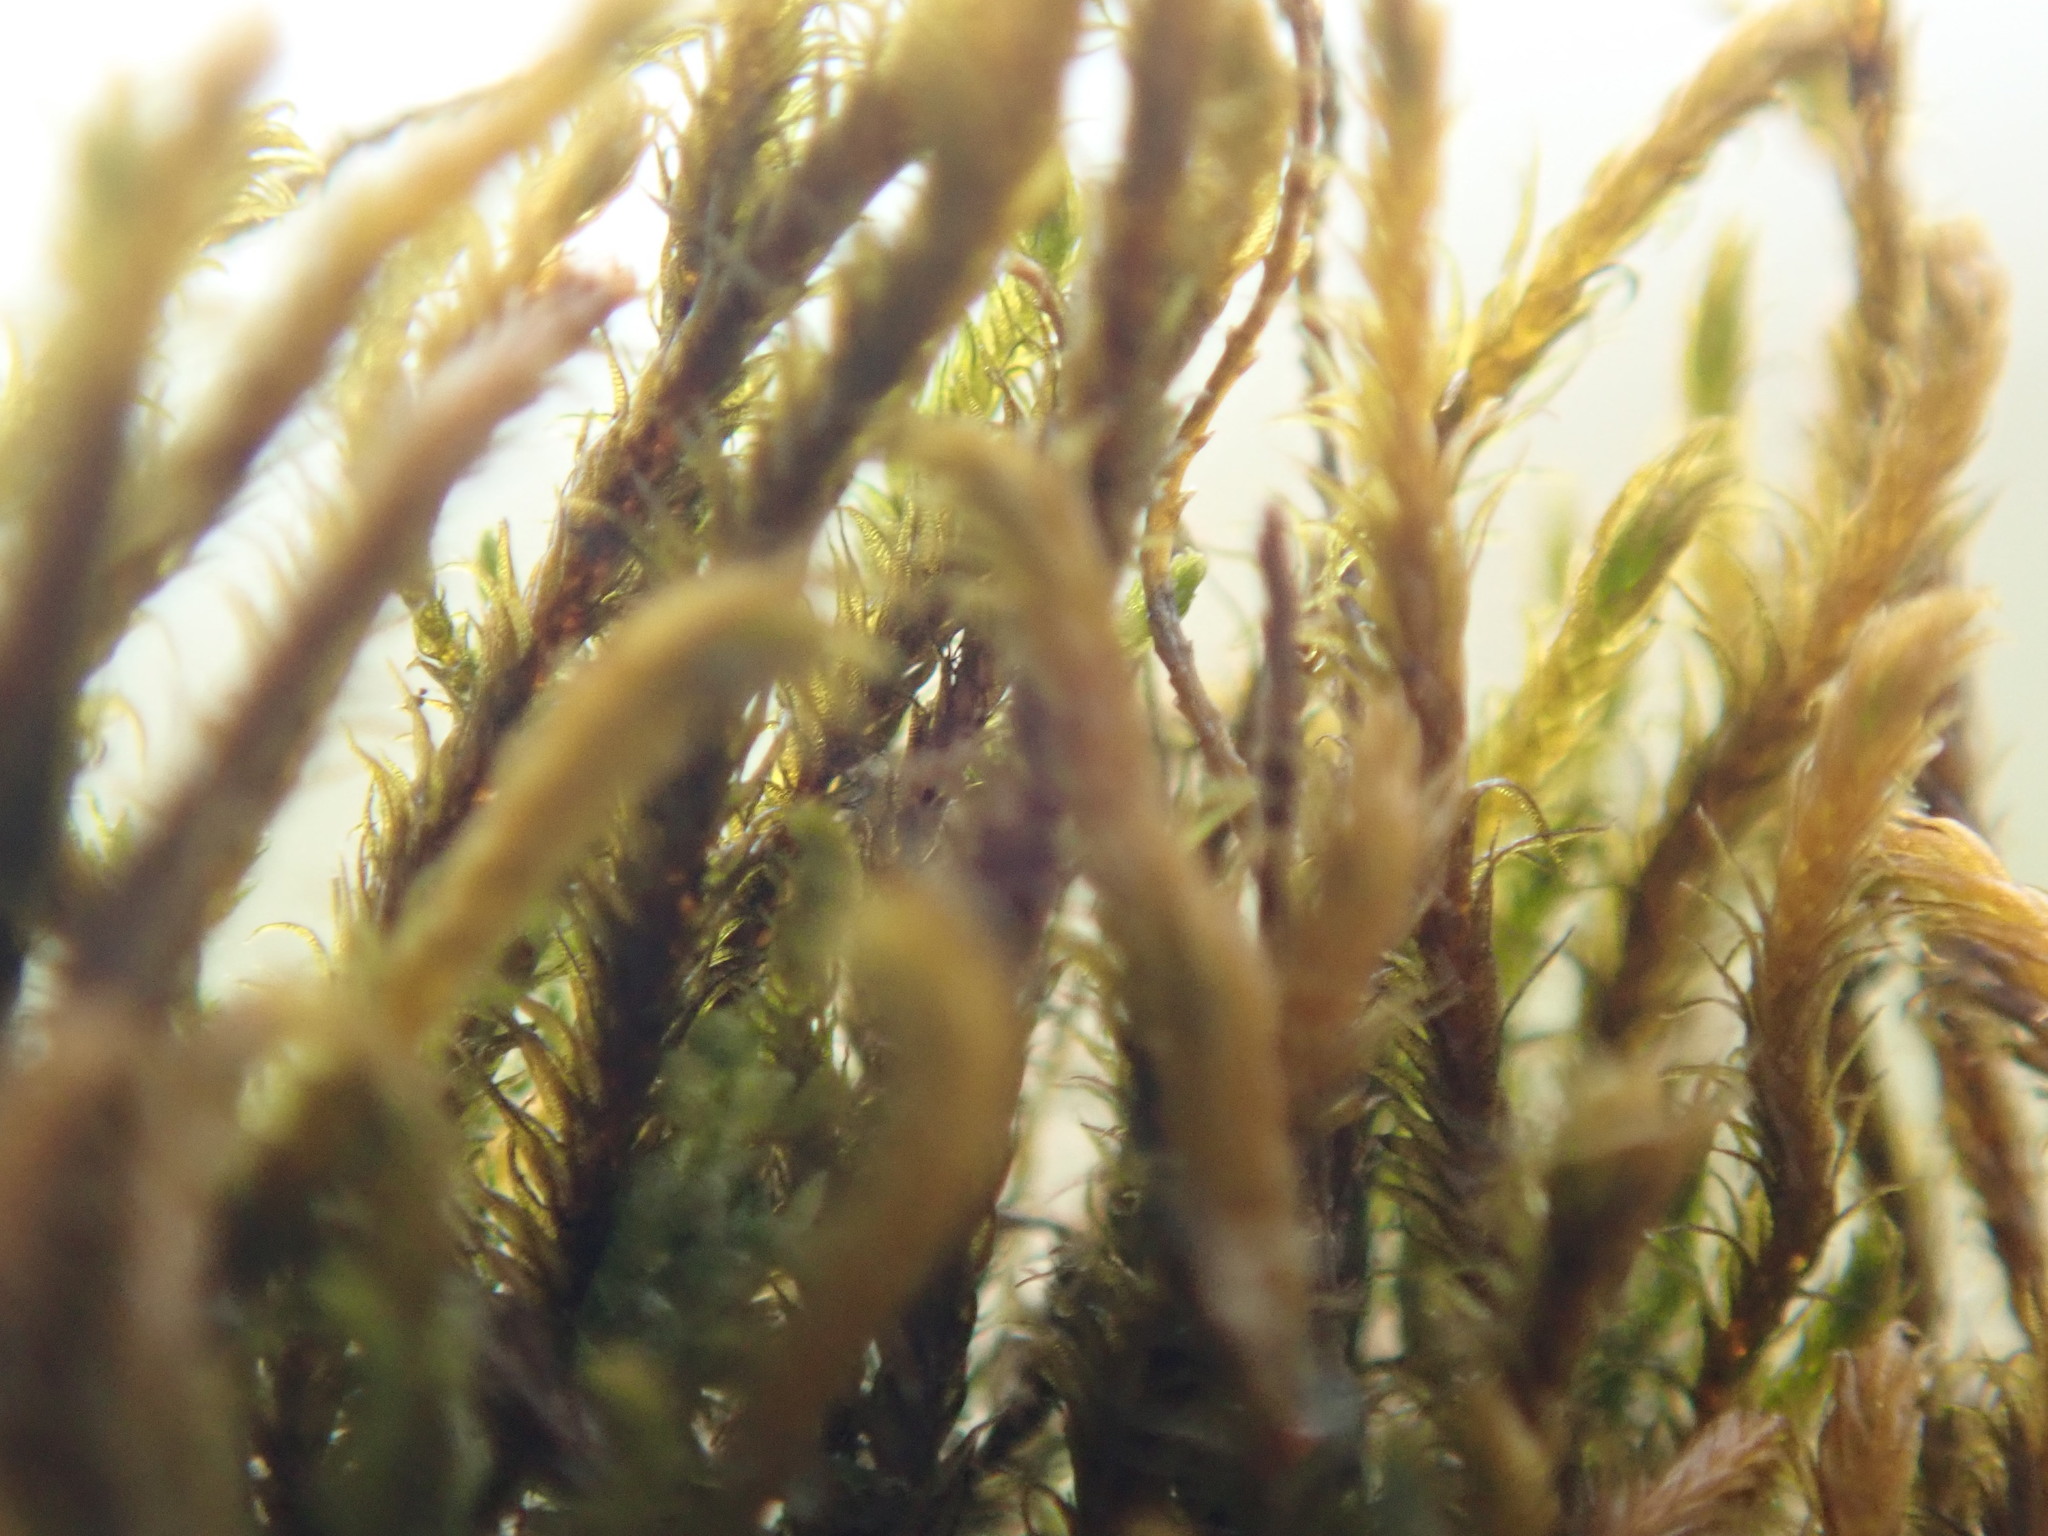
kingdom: Plantae
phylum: Marchantiophyta
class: Jungermanniopsida
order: Jungermanniales
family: Herbertaceae
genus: Herbertus
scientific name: Herbertus aduncus
